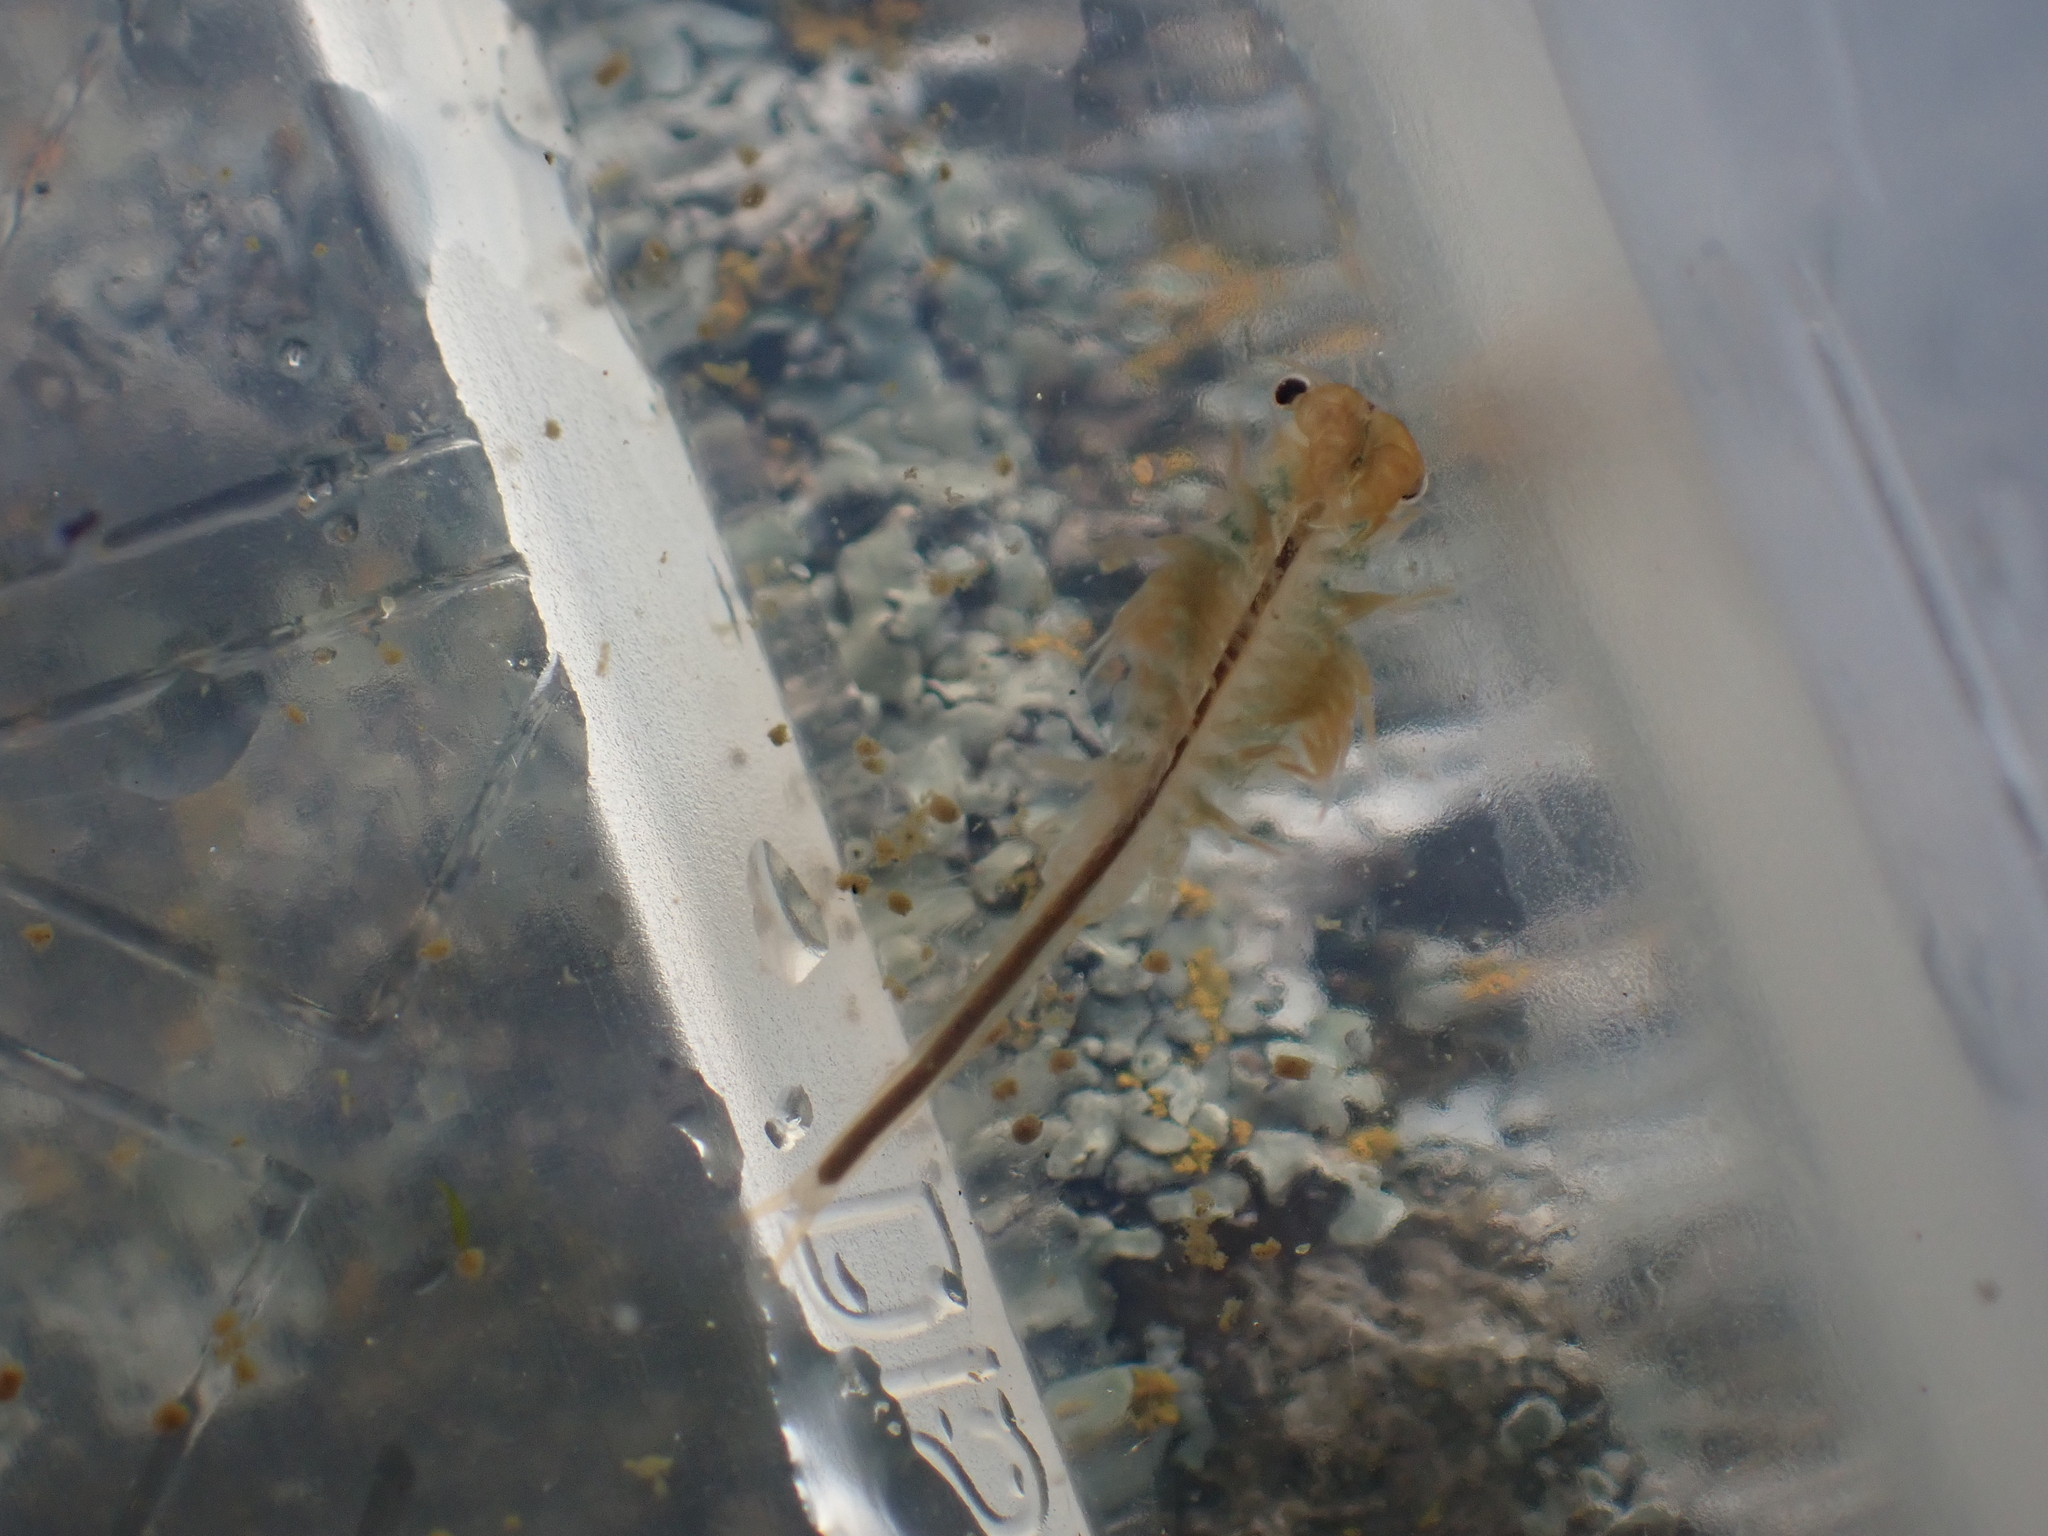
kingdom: Animalia
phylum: Arthropoda
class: Branchiopoda
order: Anostraca
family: Branchinectidae
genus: Branchinecta
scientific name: Branchinecta cornigera
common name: Horned fairy shrimp
